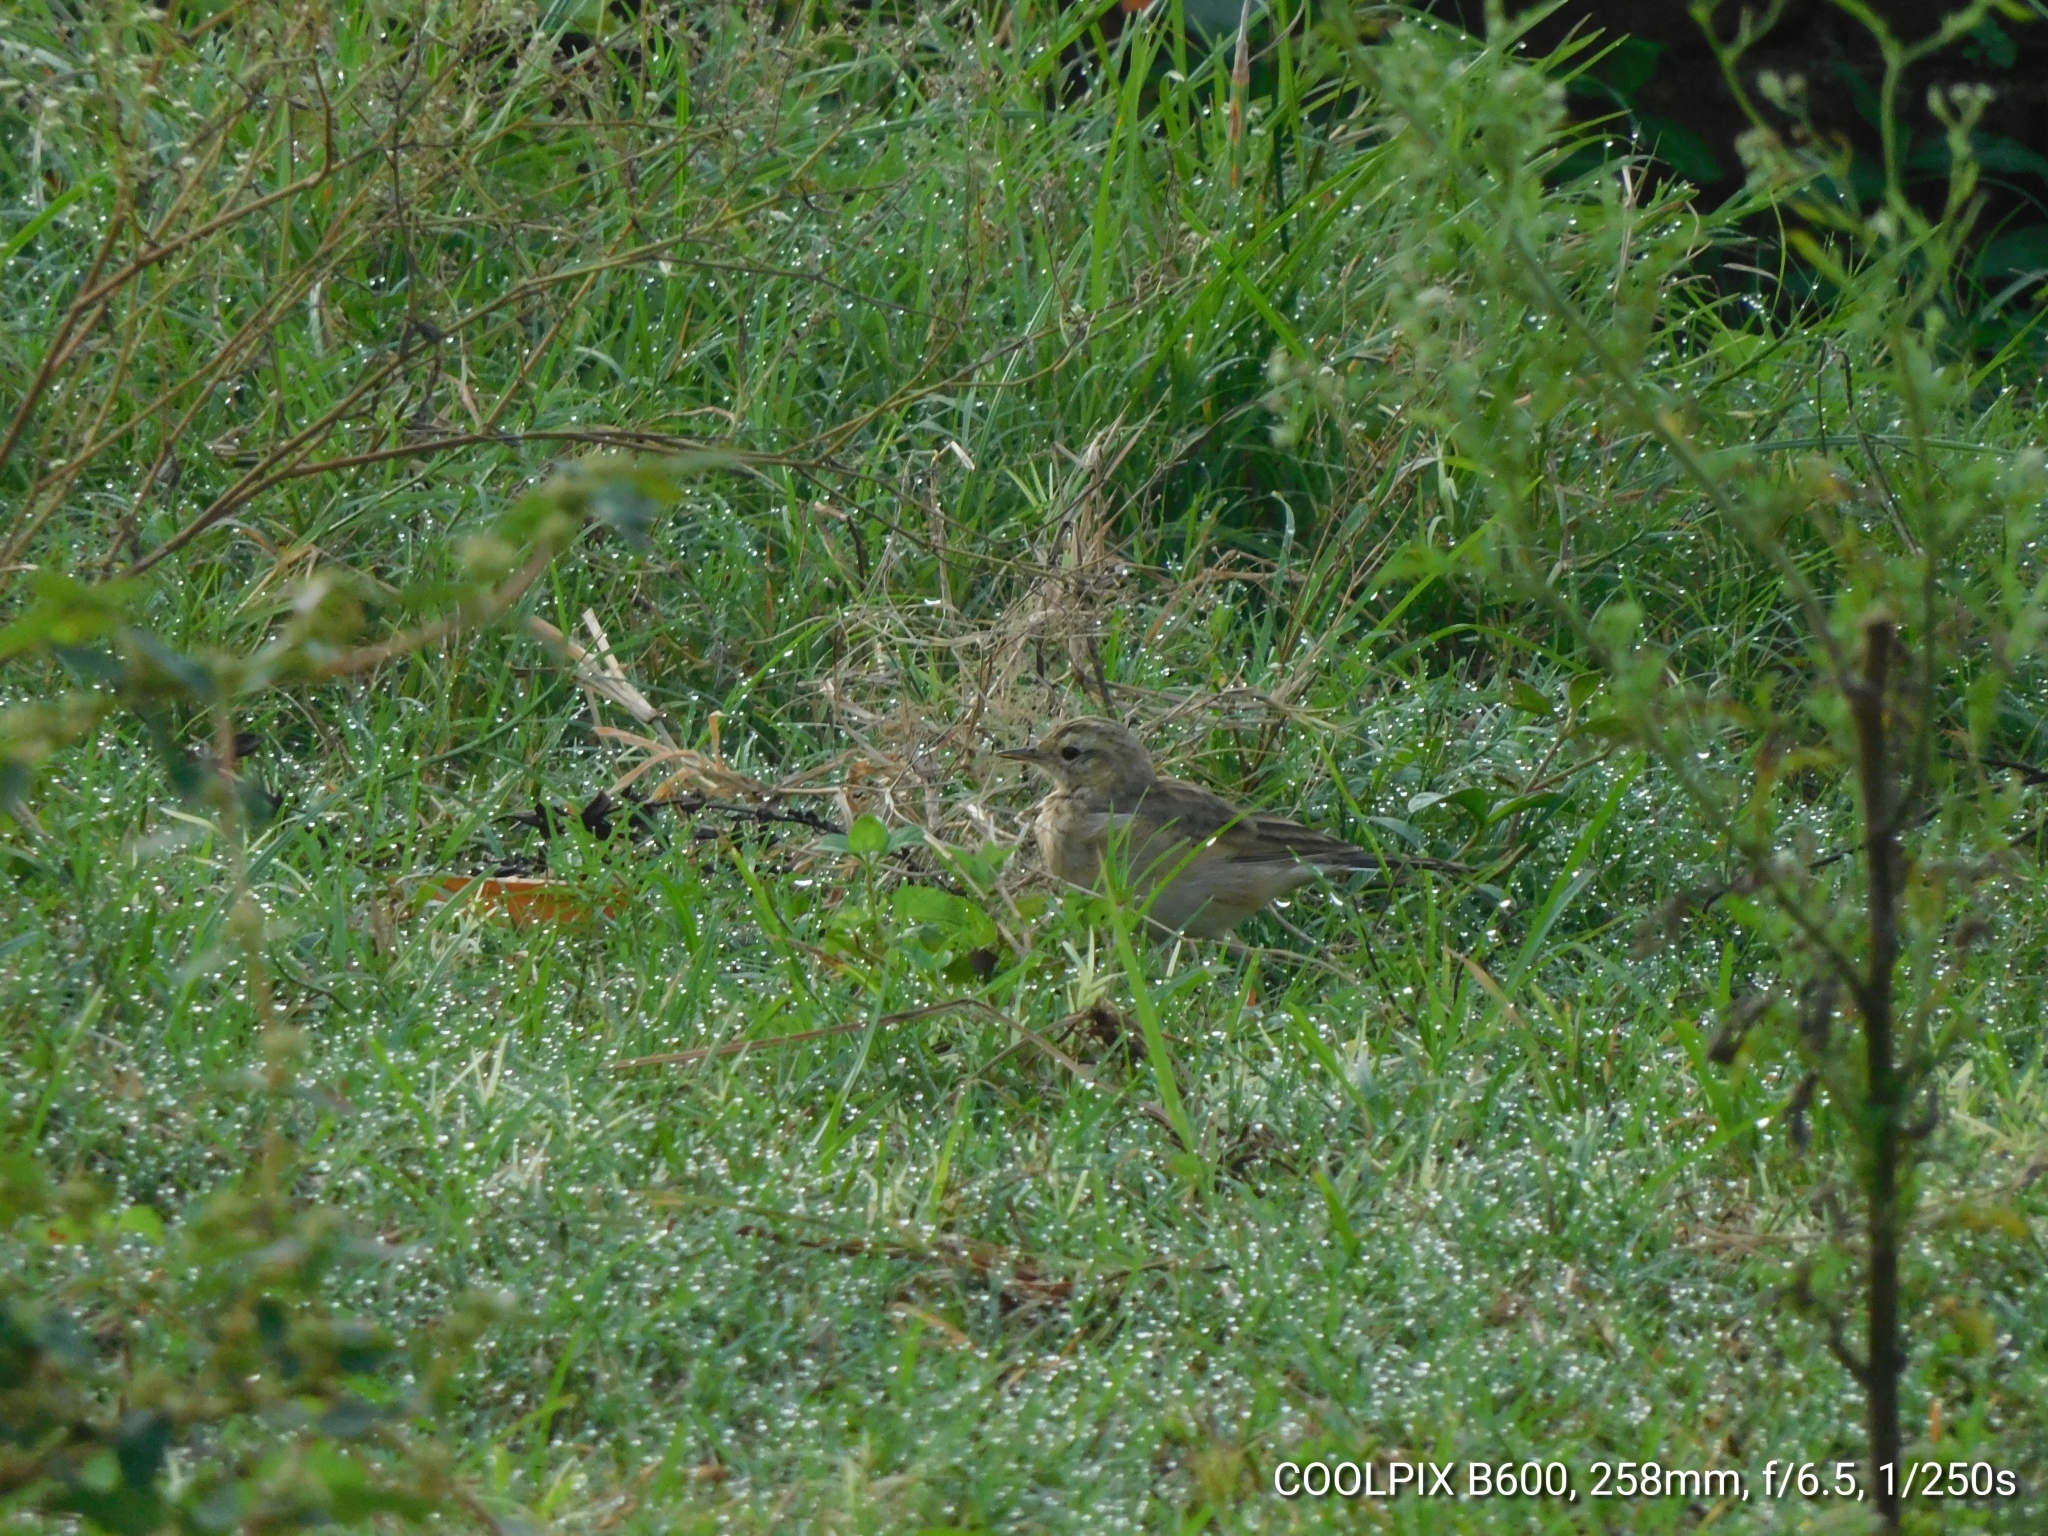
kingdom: Animalia
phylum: Chordata
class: Aves
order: Passeriformes
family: Motacillidae
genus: Anthus
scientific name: Anthus rufulus
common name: Paddyfield pipit
